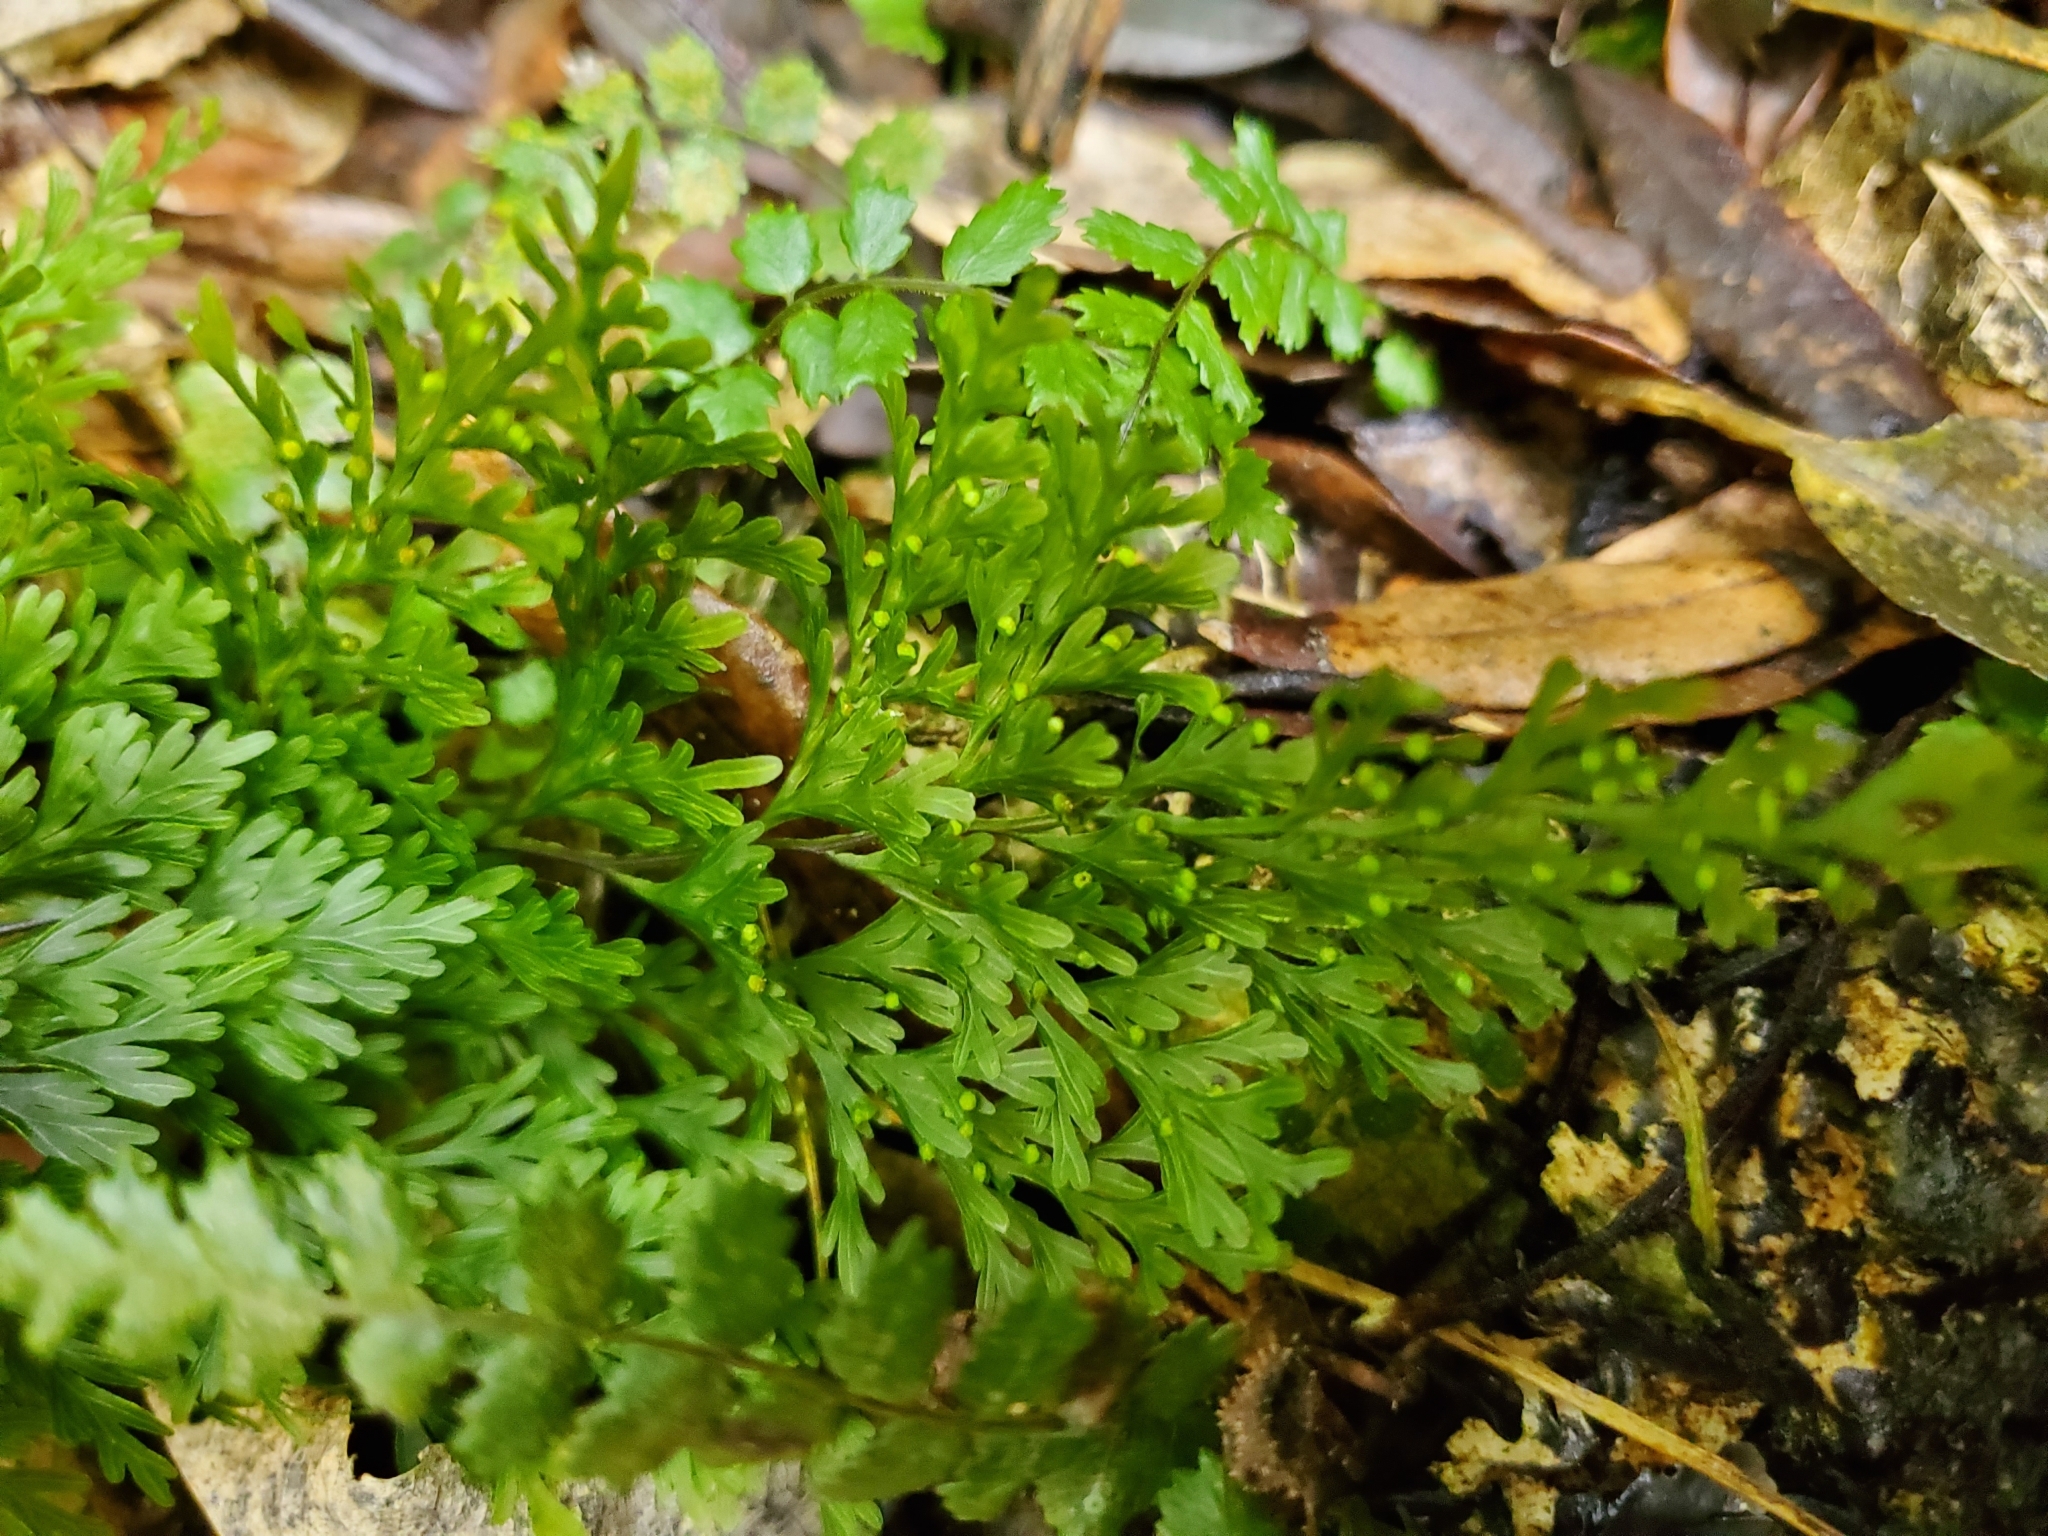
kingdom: Plantae
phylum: Tracheophyta
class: Polypodiopsida
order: Hymenophyllales
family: Hymenophyllaceae
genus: Hymenophyllum
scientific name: Hymenophyllum demissum
